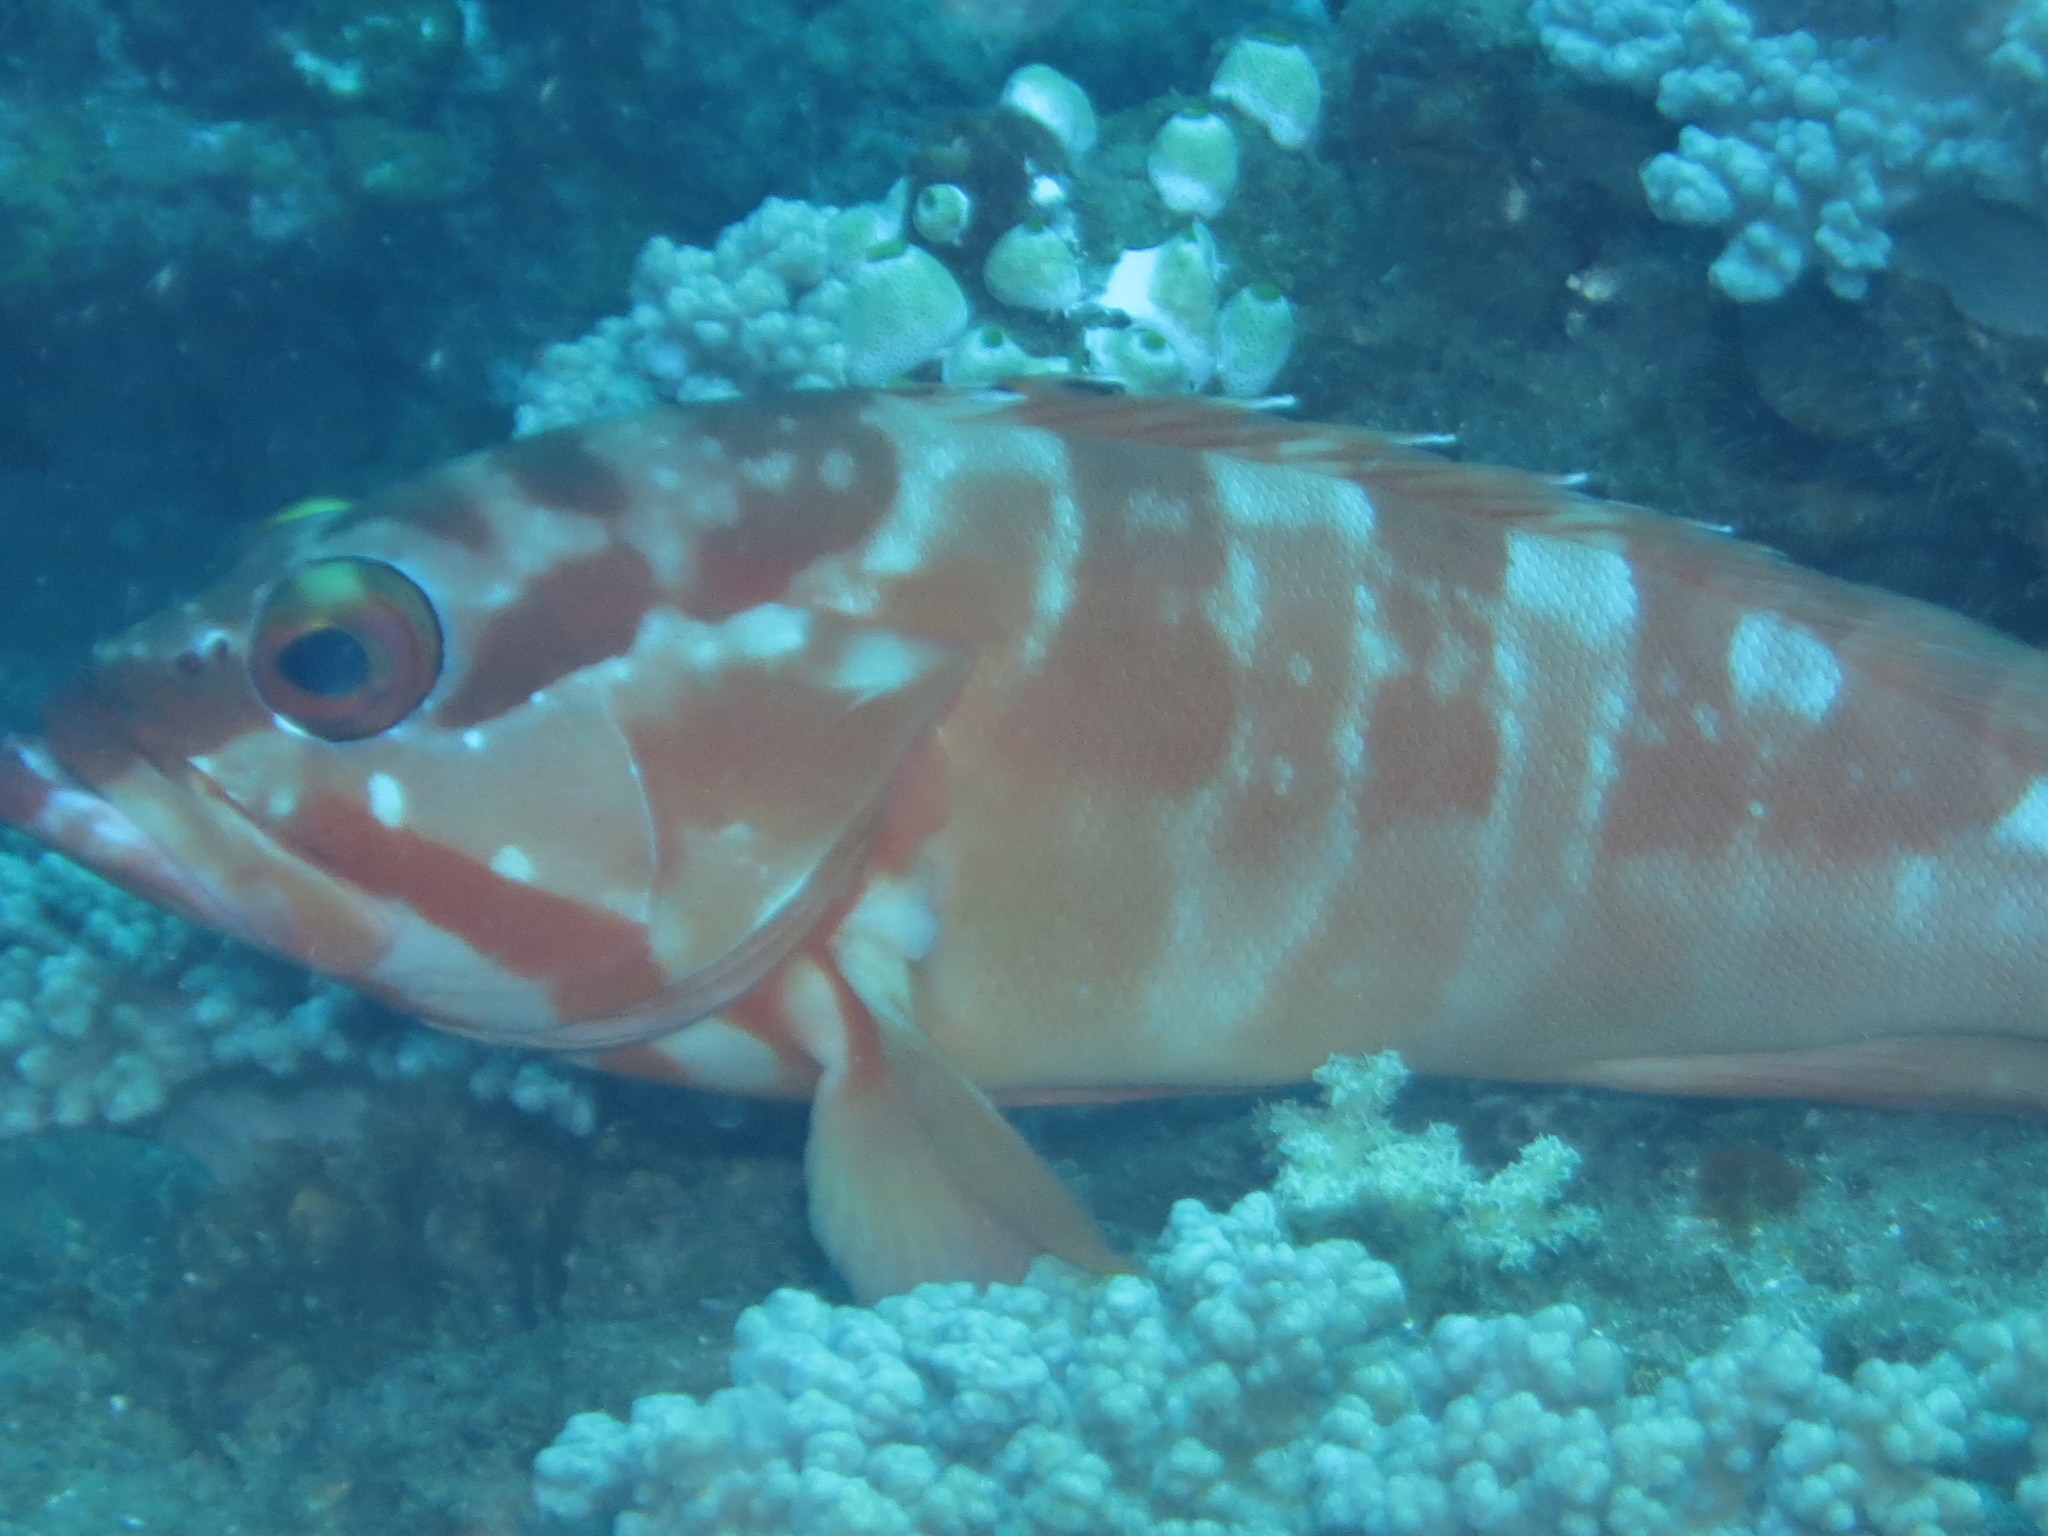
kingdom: Animalia
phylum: Chordata
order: Perciformes
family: Serranidae
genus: Epinephelus
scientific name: Epinephelus fasciatus
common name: Blacktip grouper
